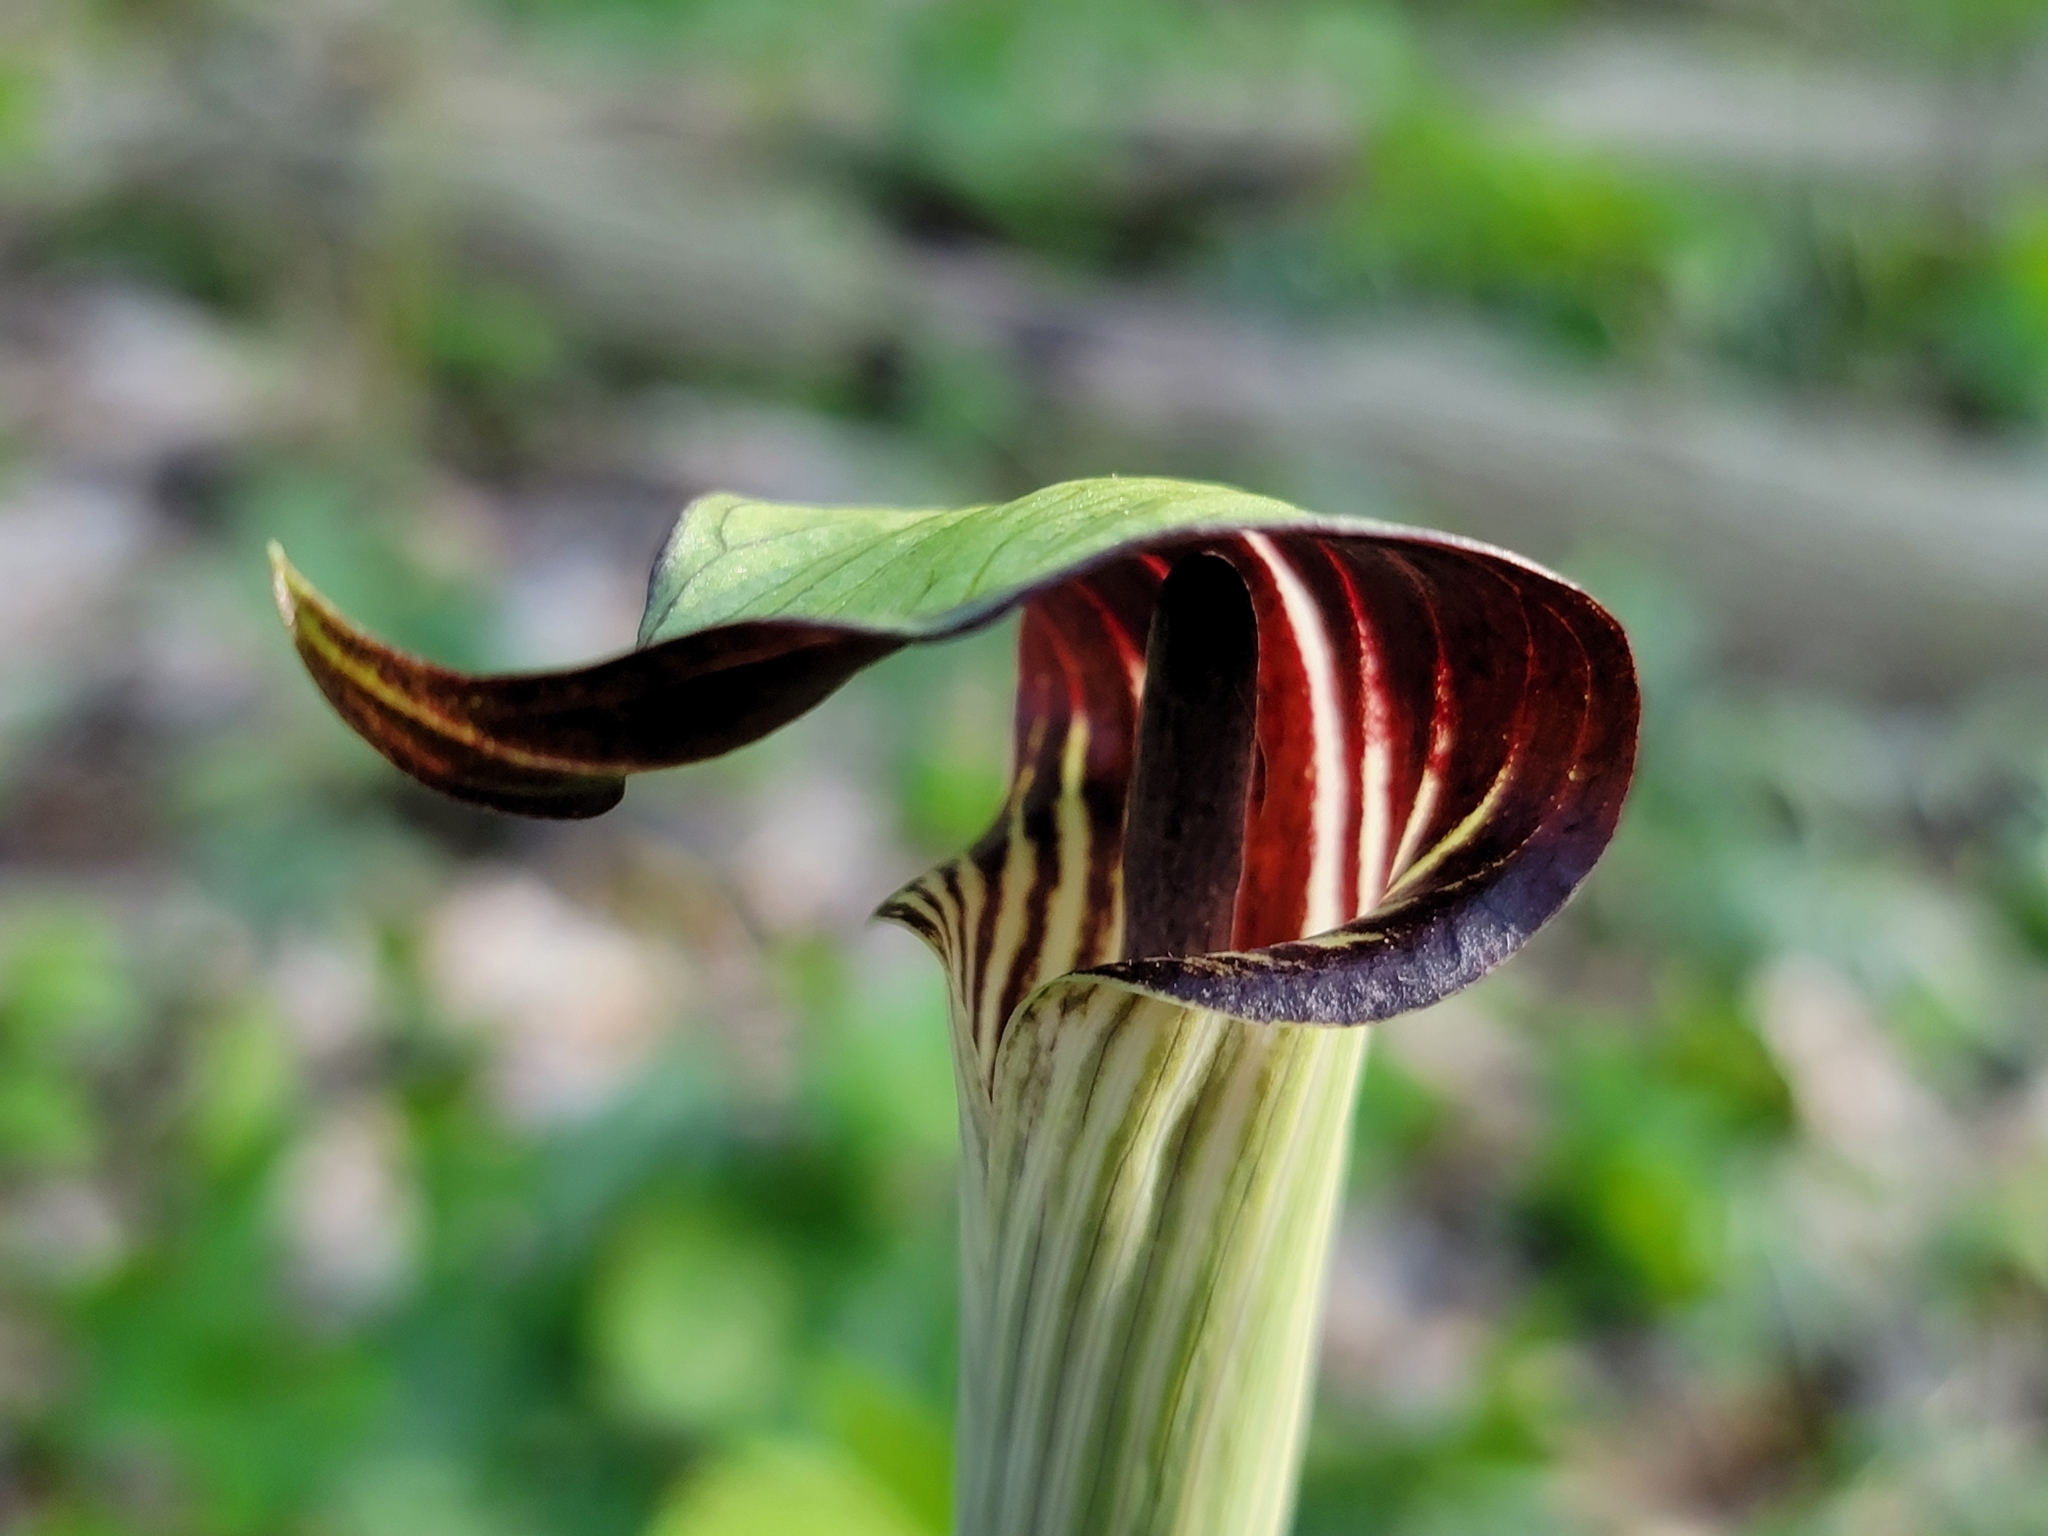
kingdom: Plantae
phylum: Tracheophyta
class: Liliopsida
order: Alismatales
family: Araceae
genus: Arisaema
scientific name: Arisaema triphyllum
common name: Jack-in-the-pulpit
